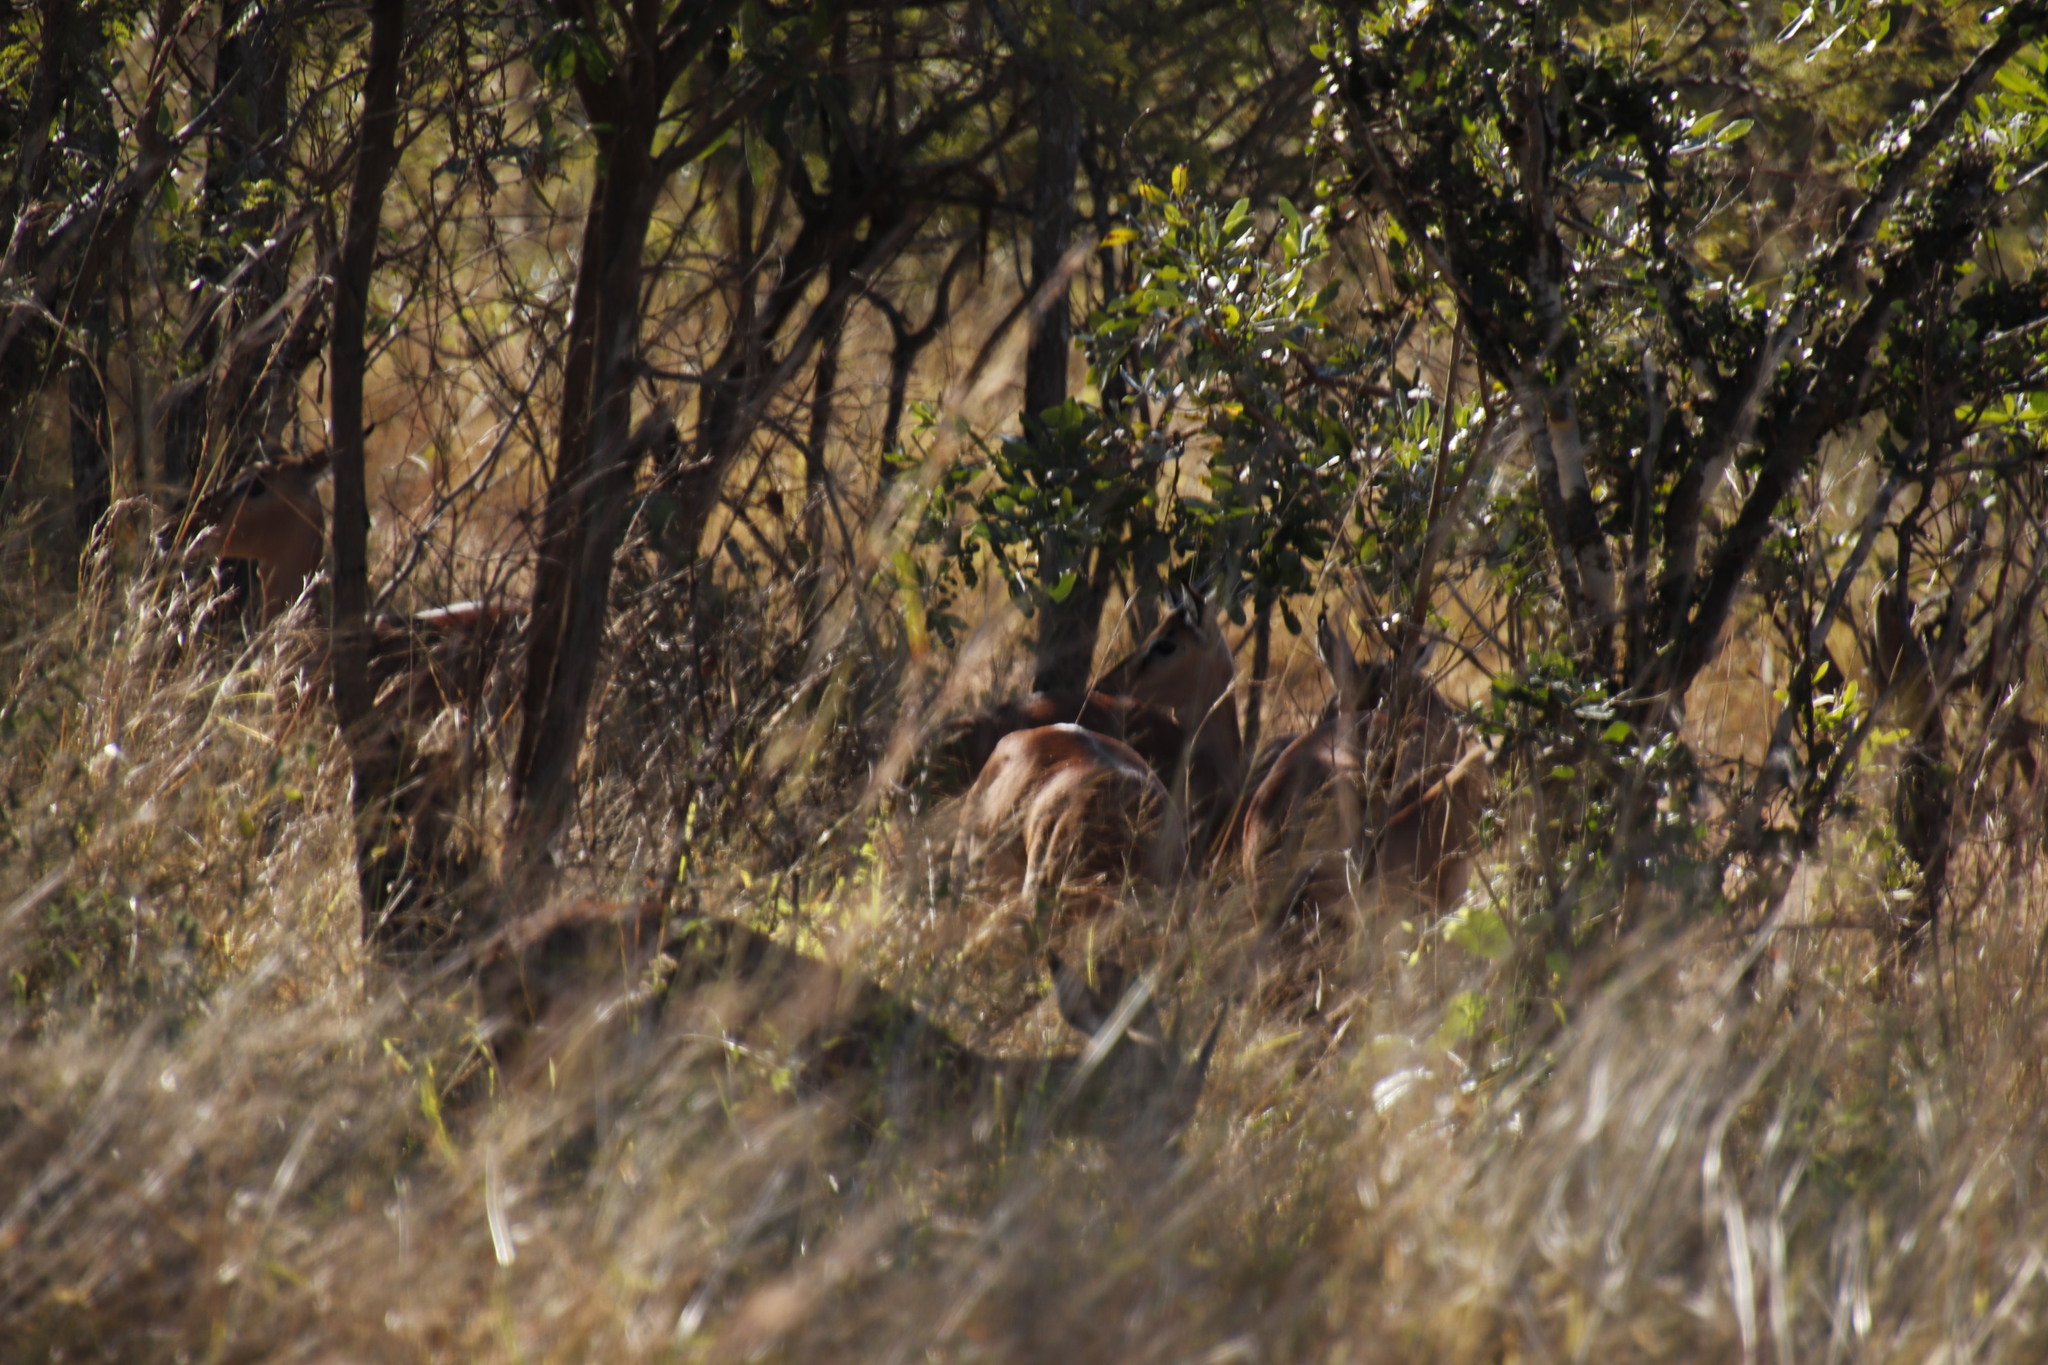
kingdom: Animalia
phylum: Chordata
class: Mammalia
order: Artiodactyla
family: Bovidae
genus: Aepyceros
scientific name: Aepyceros melampus
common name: Impala
